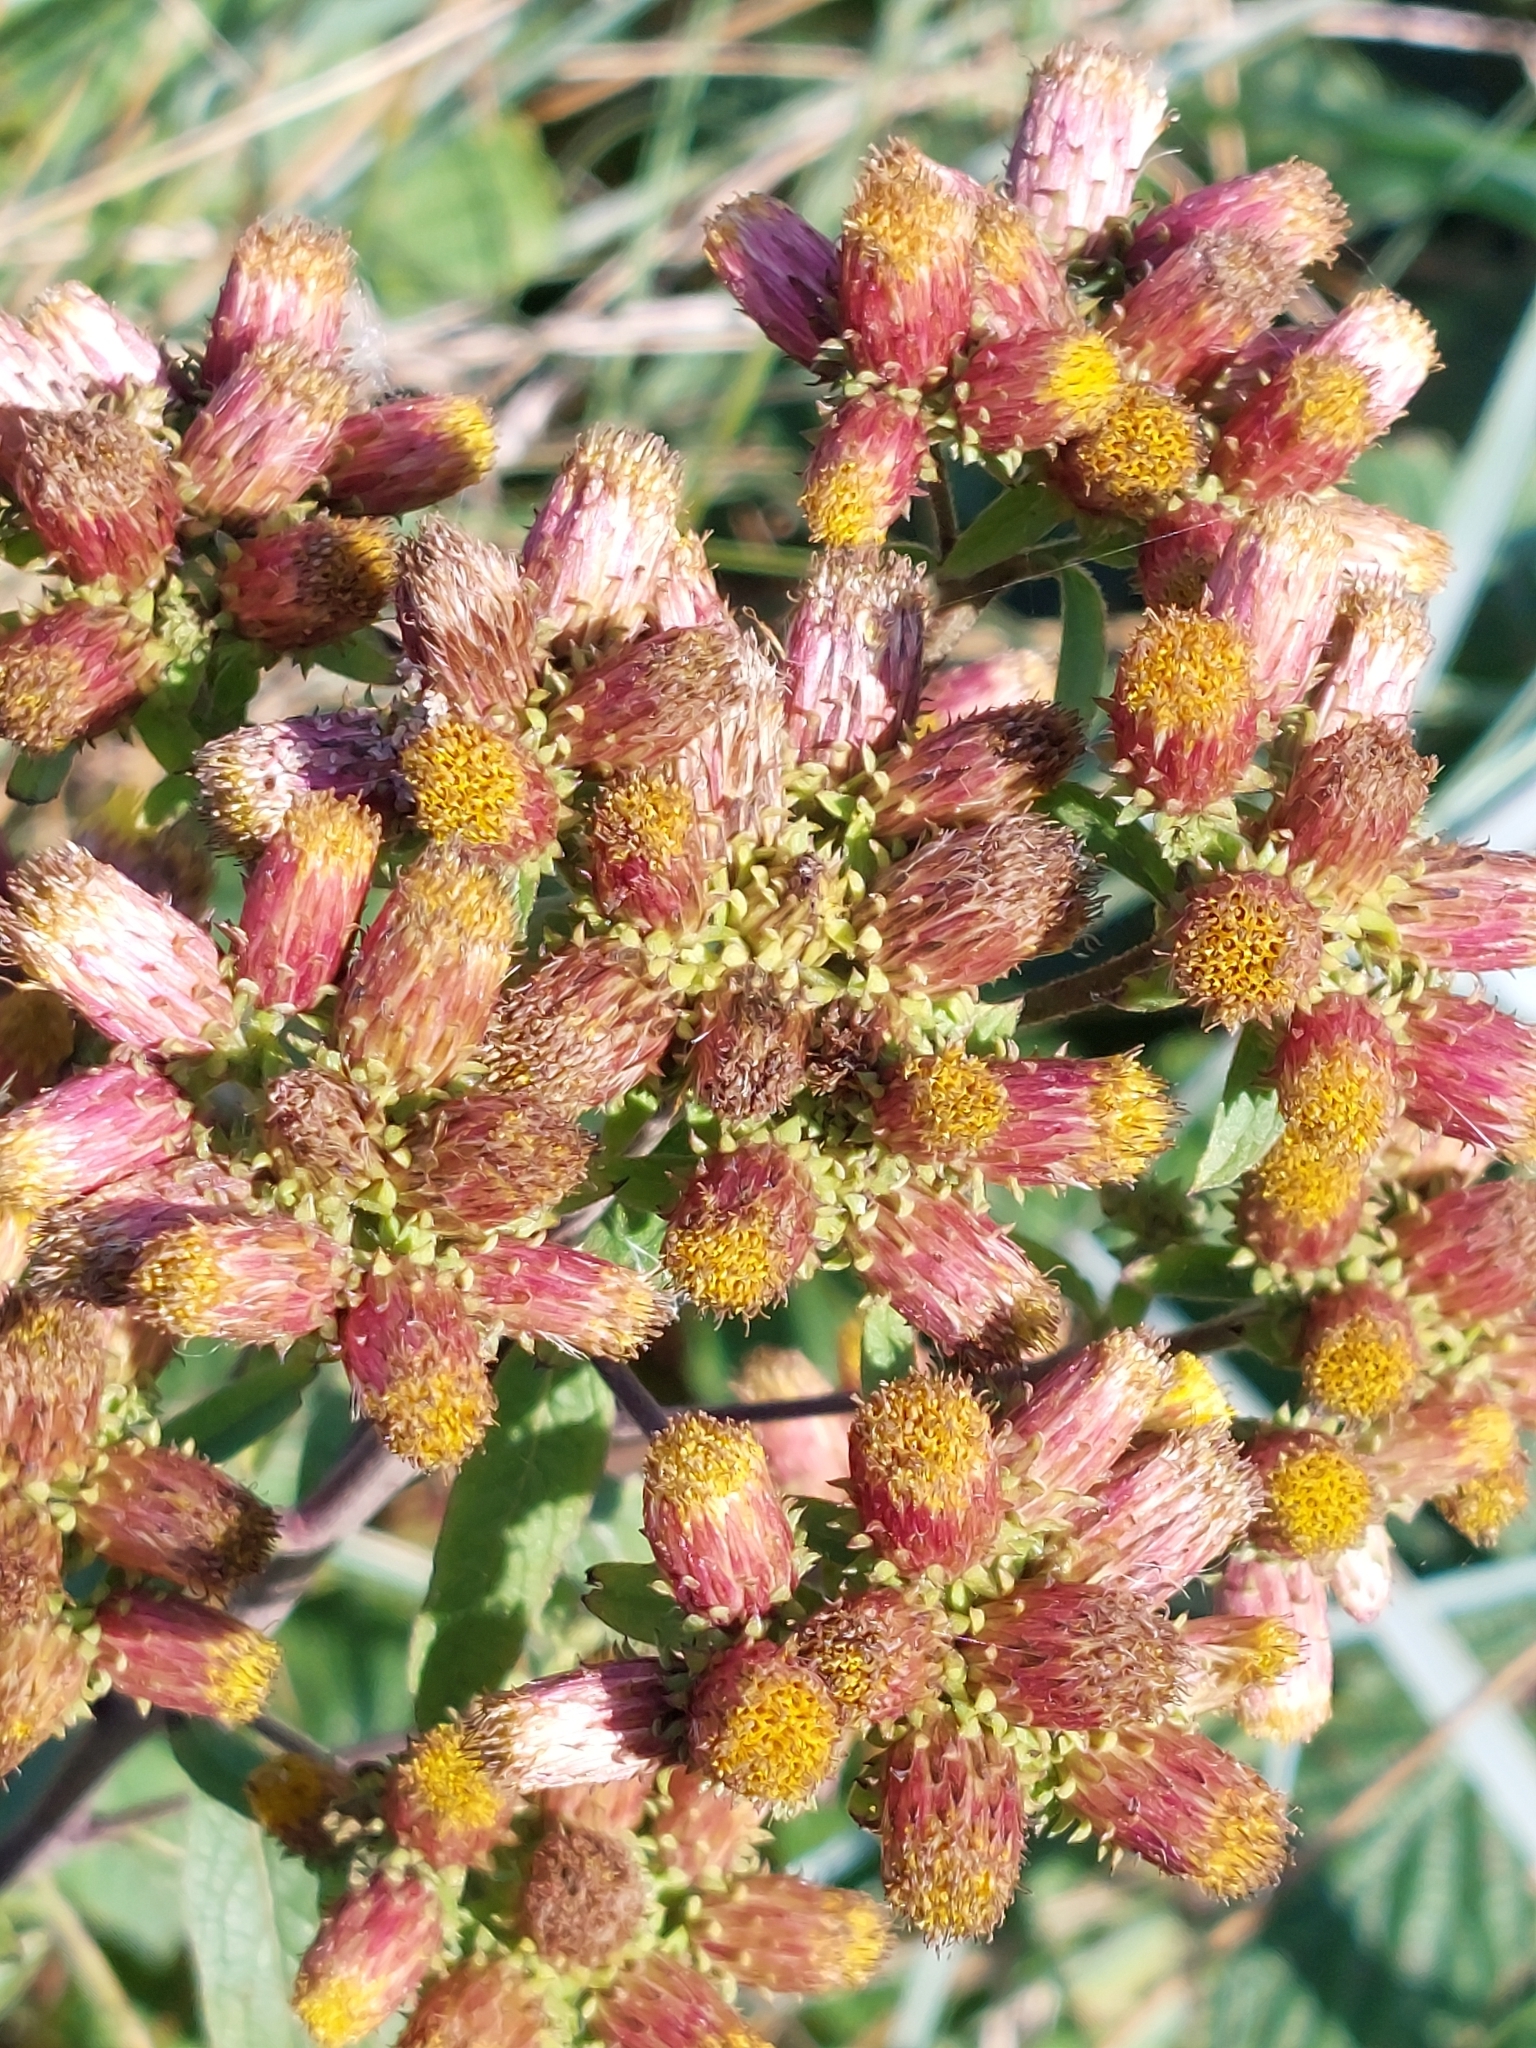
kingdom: Plantae
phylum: Tracheophyta
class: Magnoliopsida
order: Asterales
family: Asteraceae
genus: Pentanema
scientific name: Pentanema squarrosum
